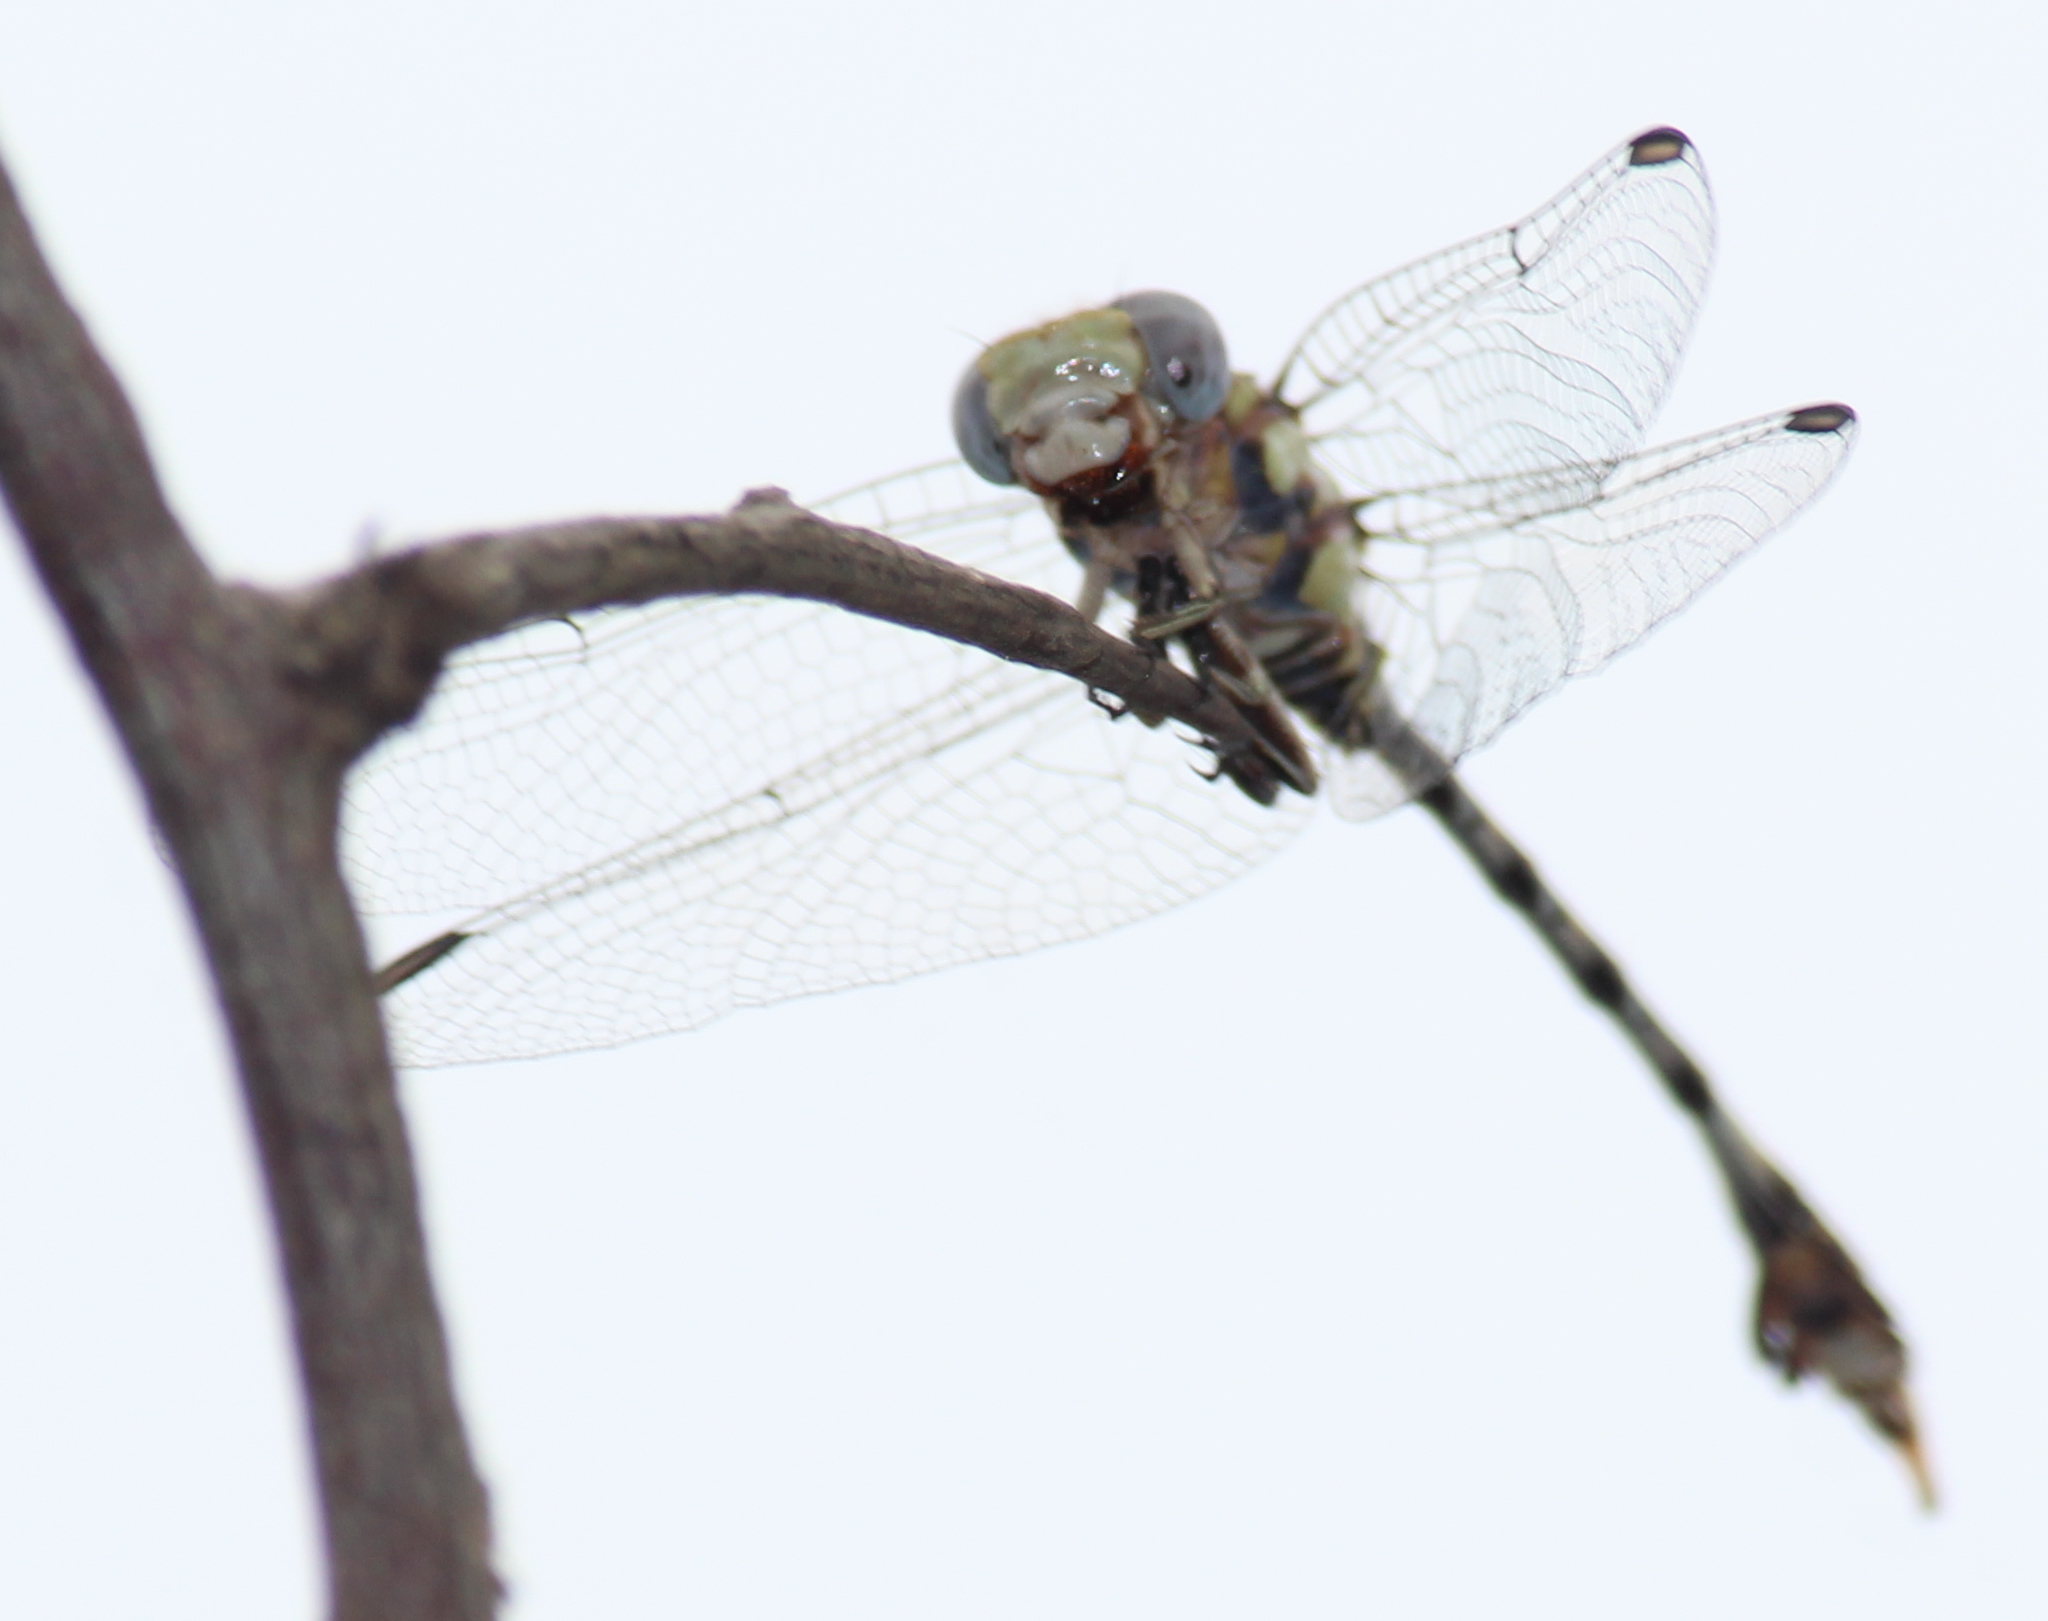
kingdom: Animalia
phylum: Arthropoda
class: Insecta
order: Odonata
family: Gomphidae
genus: Paragomphus
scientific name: Paragomphus genei
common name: Common hooktail
